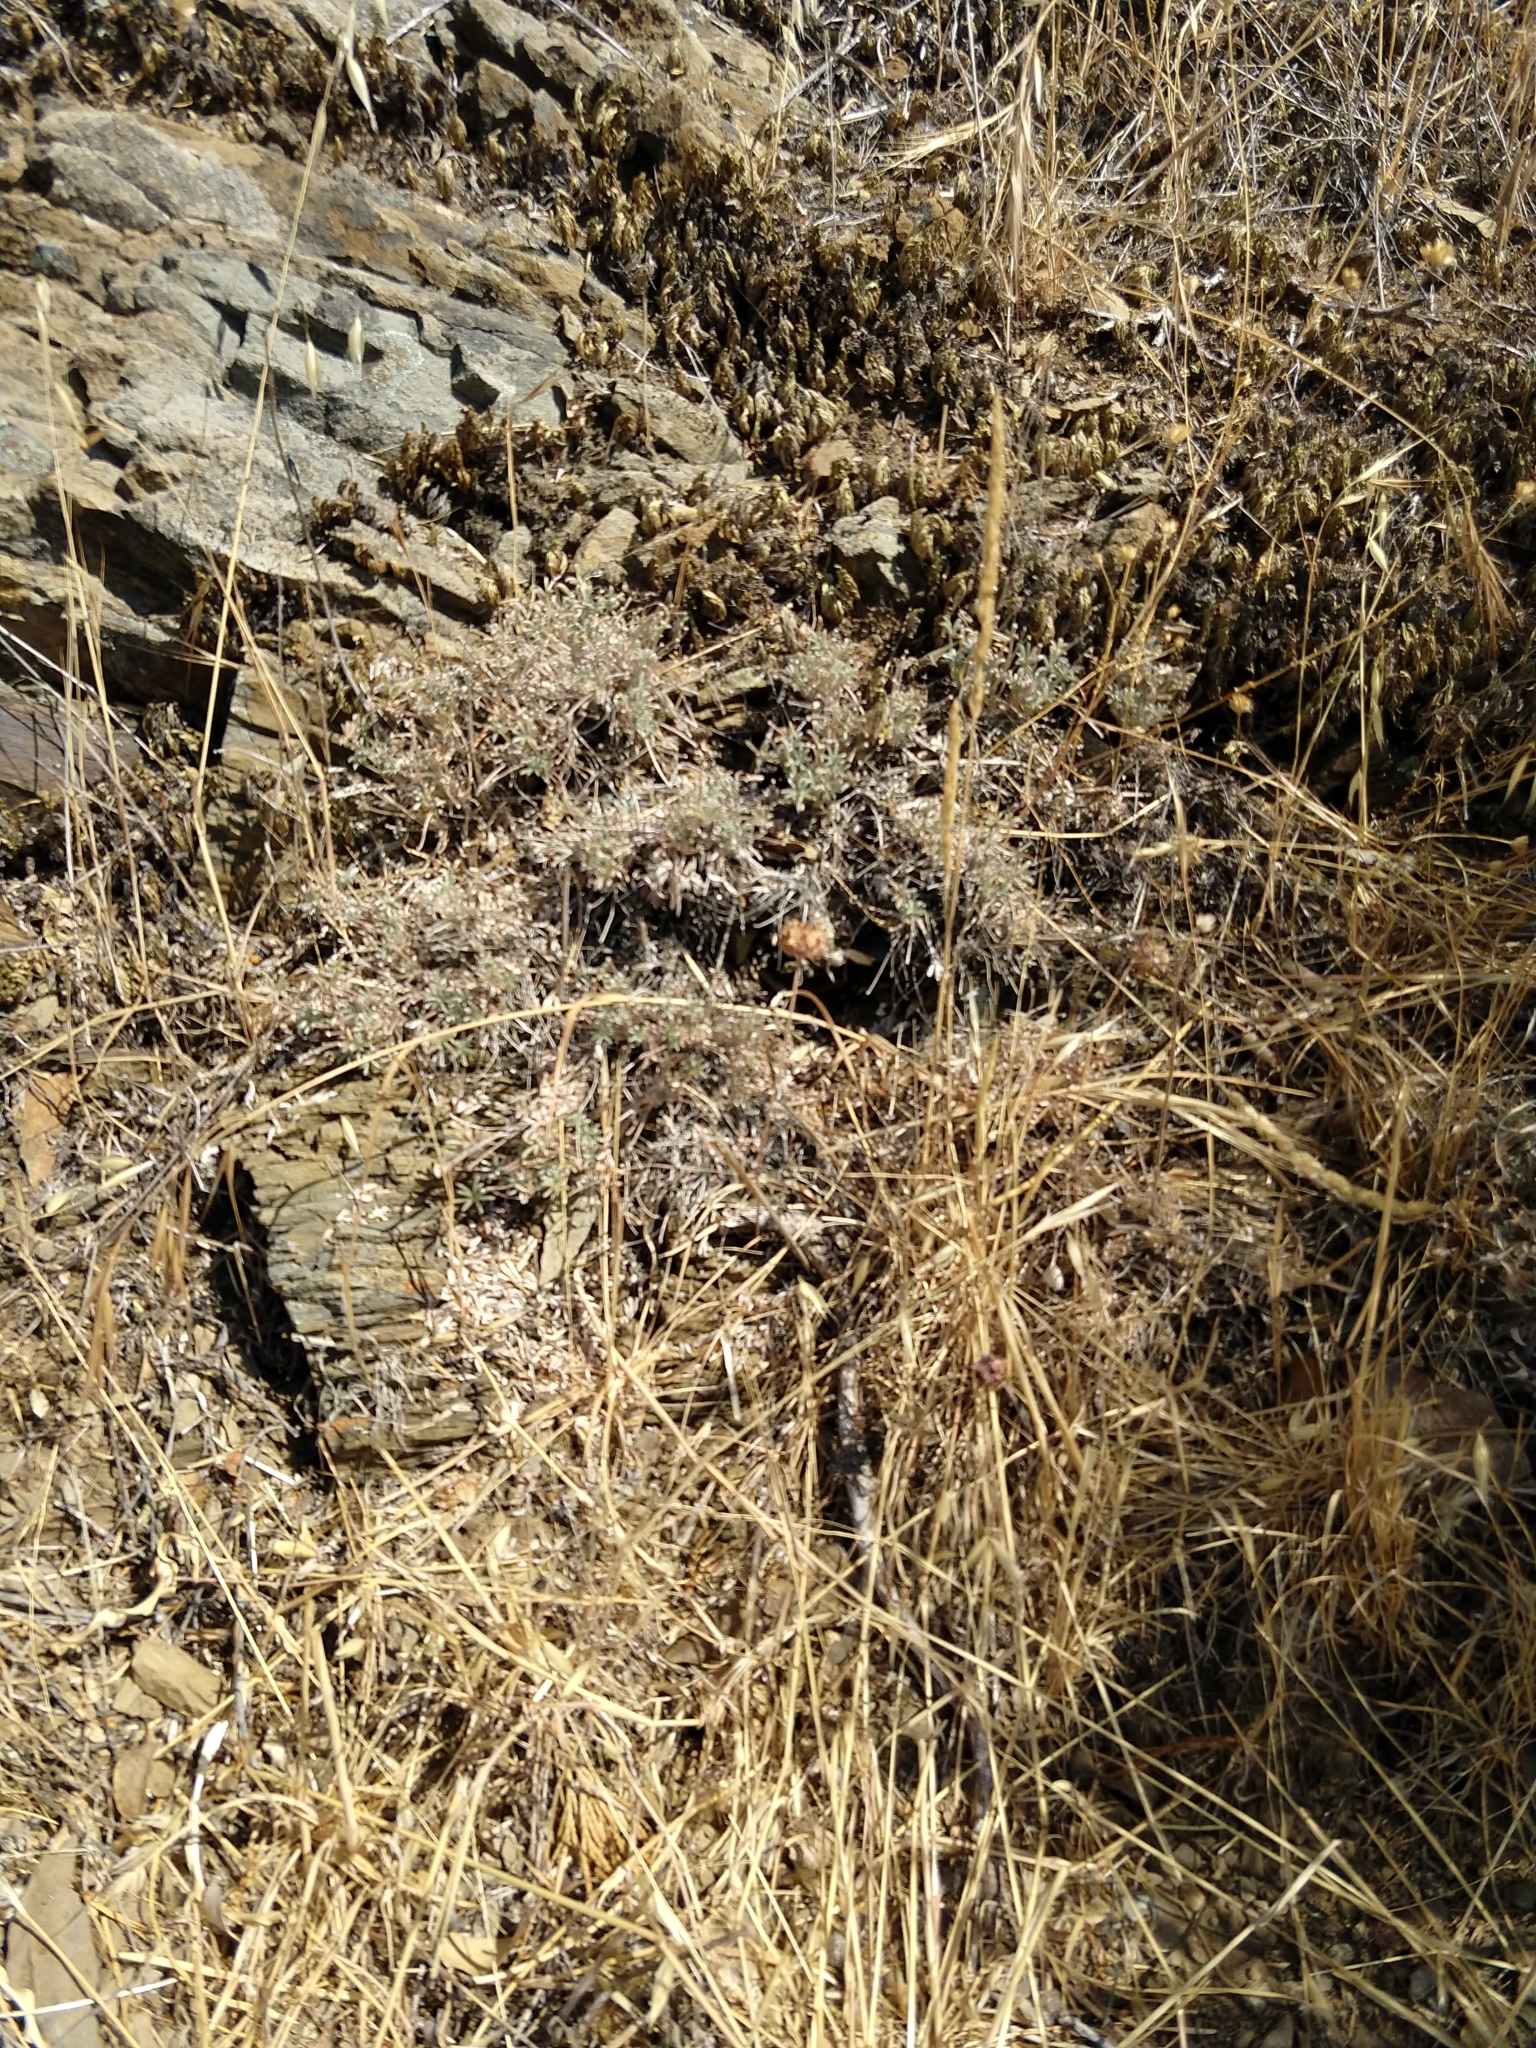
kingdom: Plantae
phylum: Tracheophyta
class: Magnoliopsida
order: Lamiales
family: Lamiaceae
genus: Salvia
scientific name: Salvia columbariae
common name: Chia
